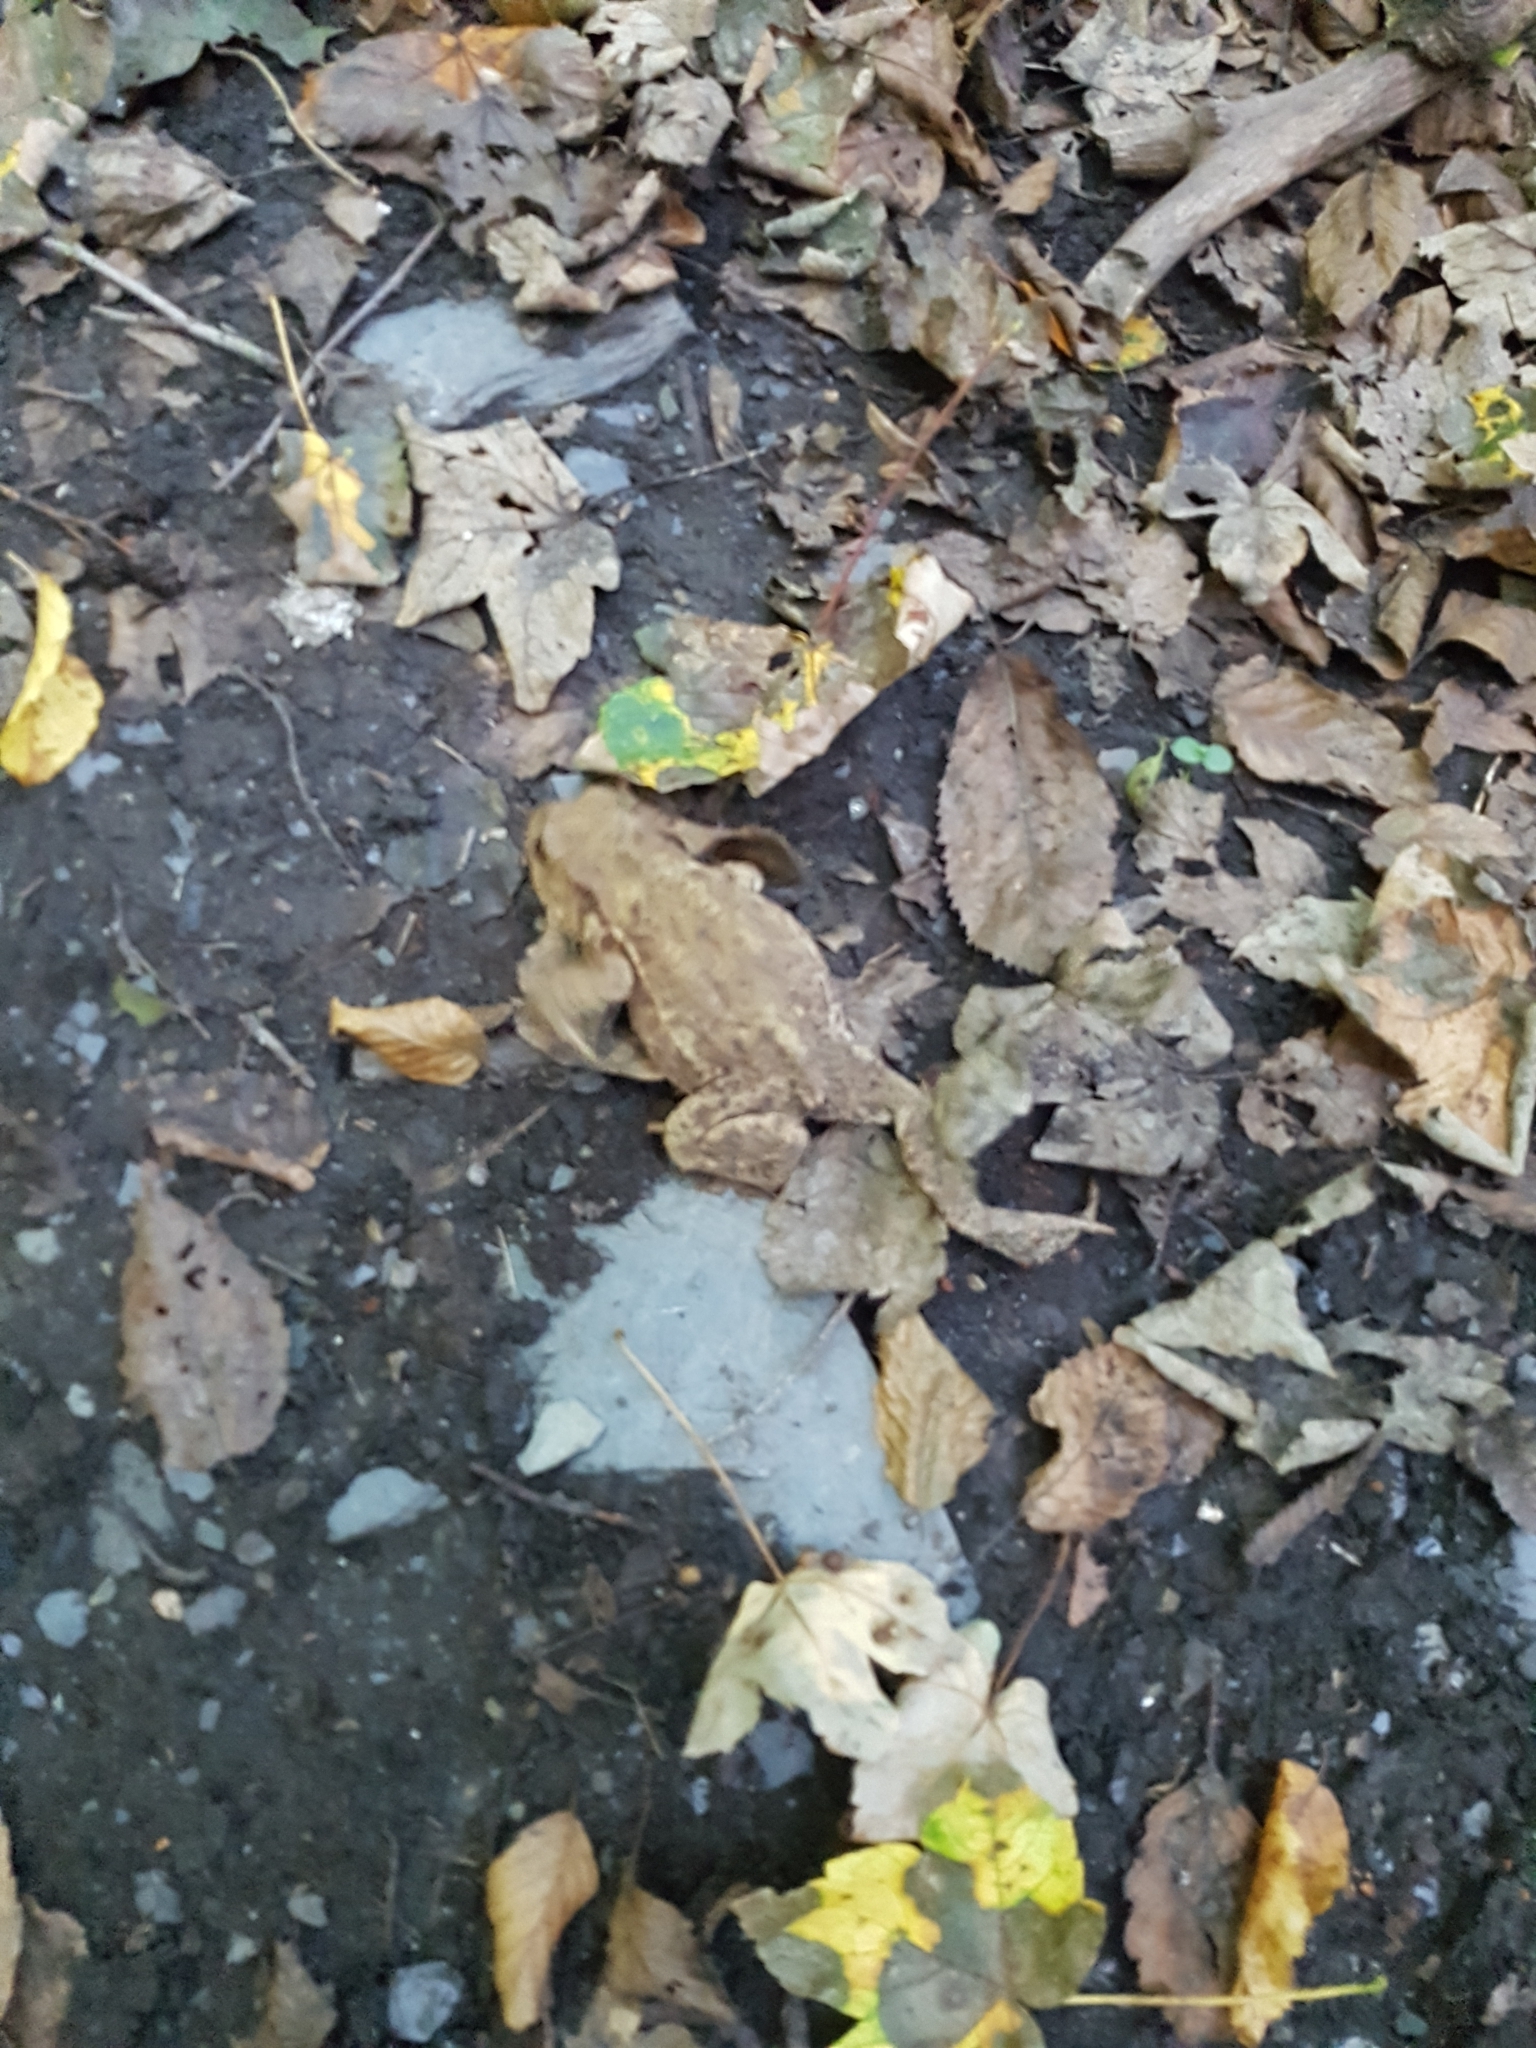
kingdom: Animalia
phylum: Chordata
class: Amphibia
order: Anura
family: Bufonidae
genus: Bufo
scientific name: Bufo bufo
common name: Common toad
